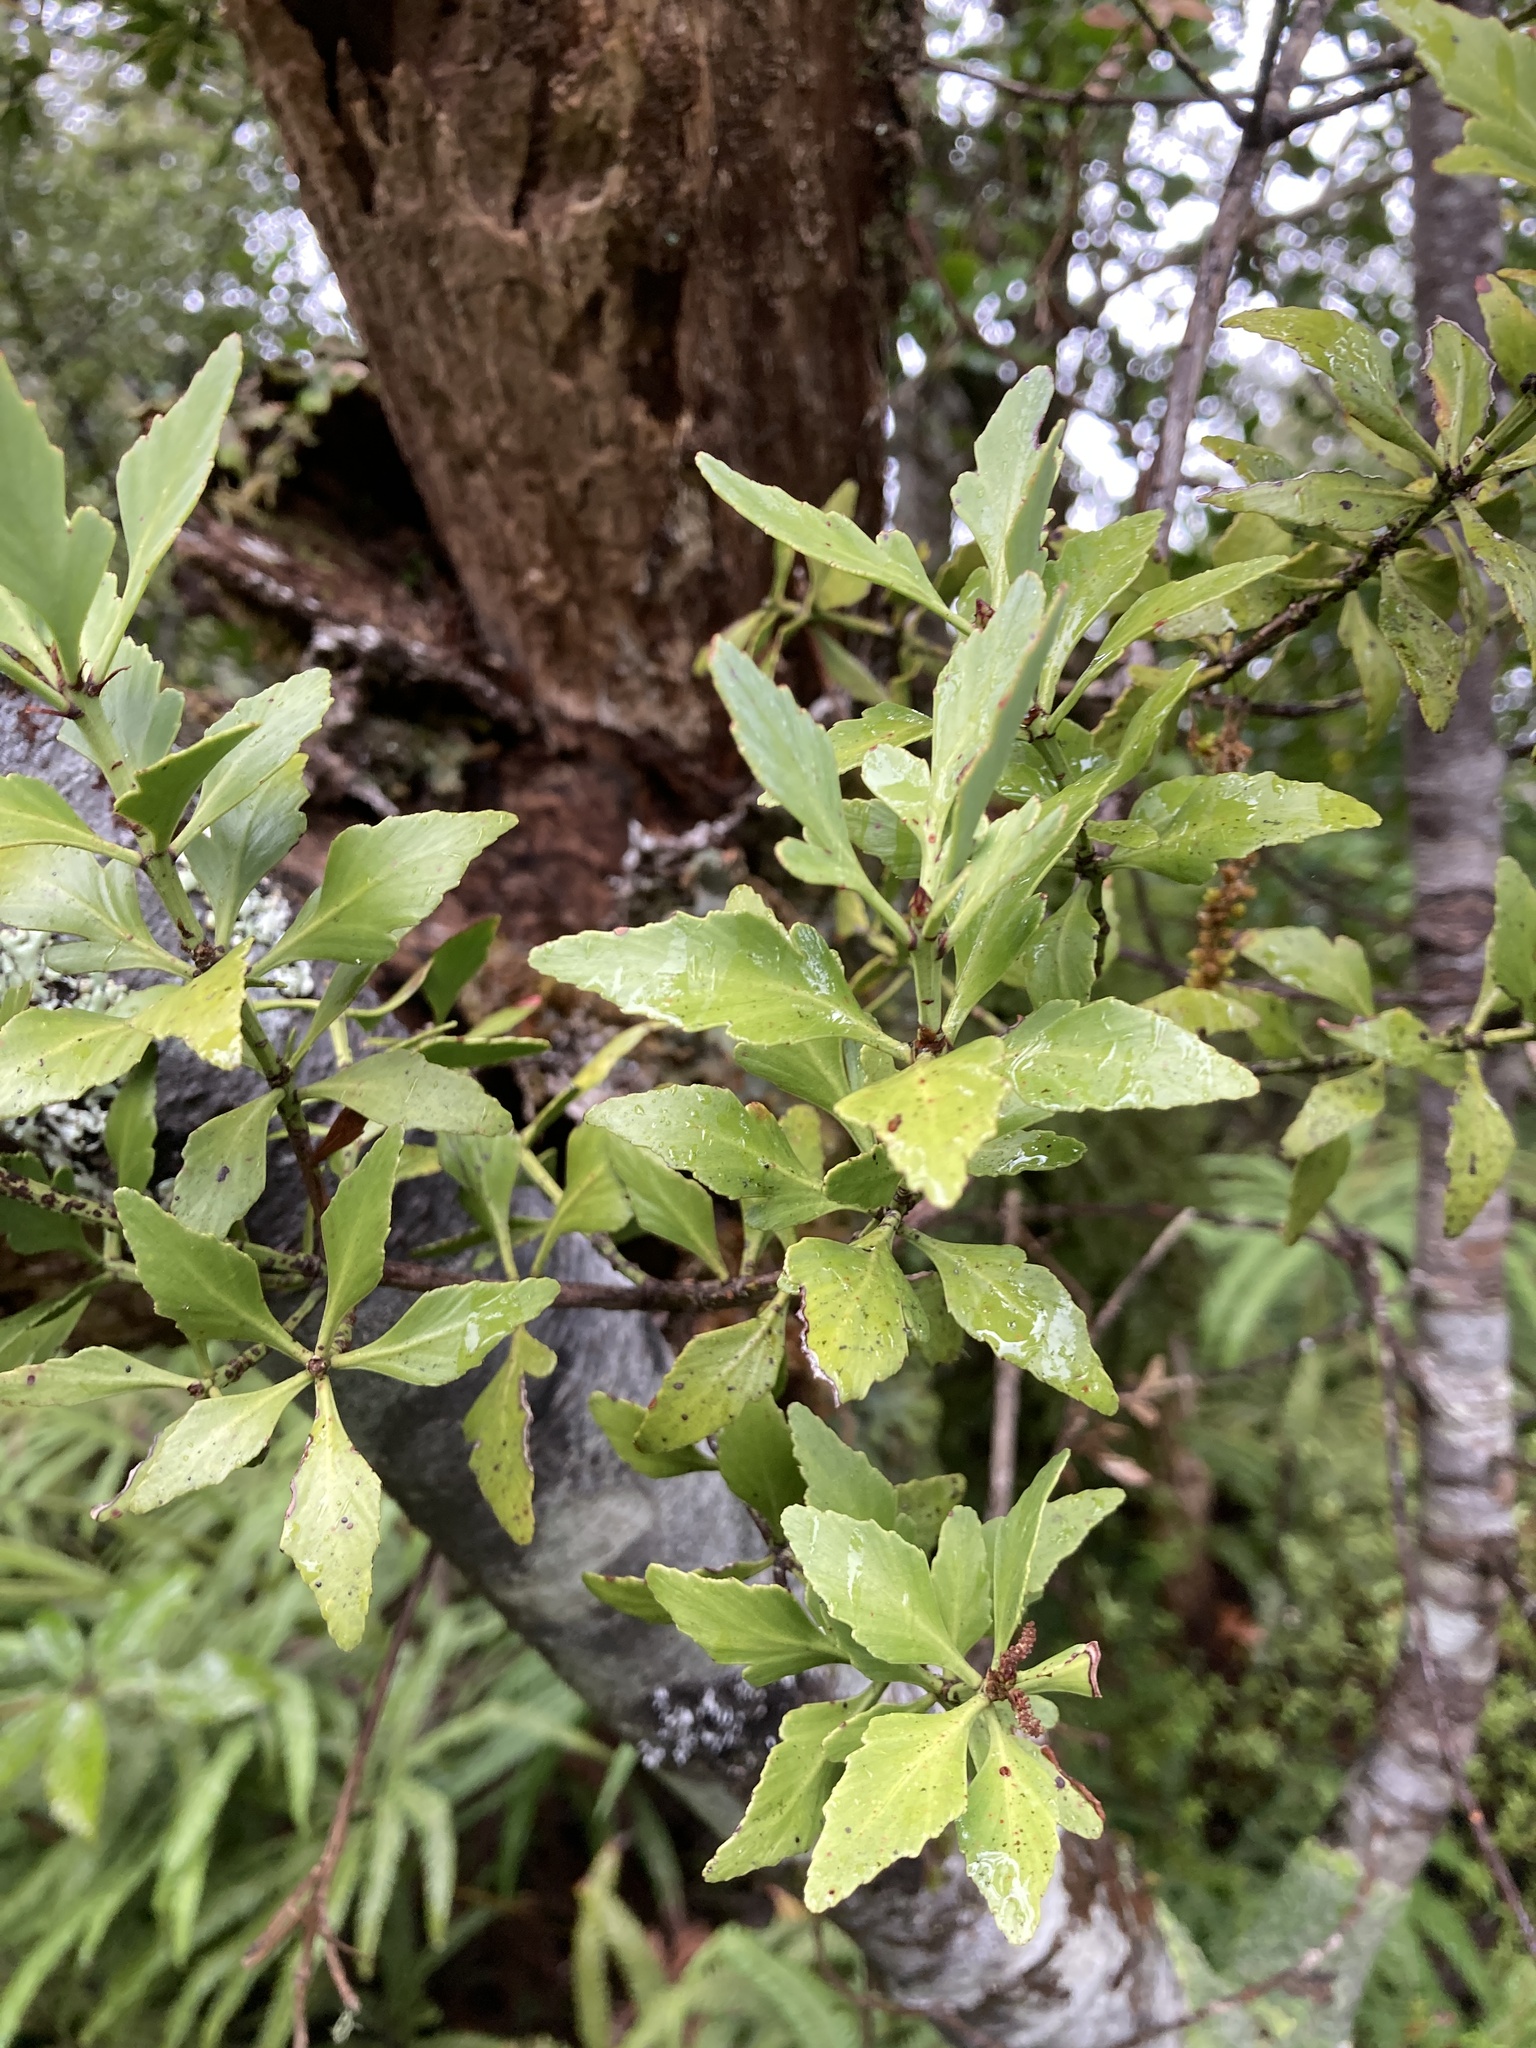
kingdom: Plantae
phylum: Tracheophyta
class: Pinopsida
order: Pinales
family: Phyllocladaceae
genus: Phyllocladus
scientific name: Phyllocladus trichomanoides
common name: Celery pine
